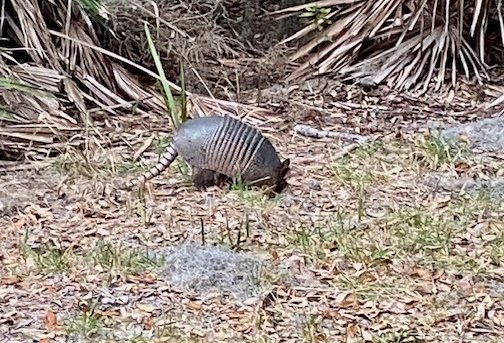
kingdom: Animalia
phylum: Chordata
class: Mammalia
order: Cingulata
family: Dasypodidae
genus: Dasypus
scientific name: Dasypus novemcinctus
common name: Nine-banded armadillo
